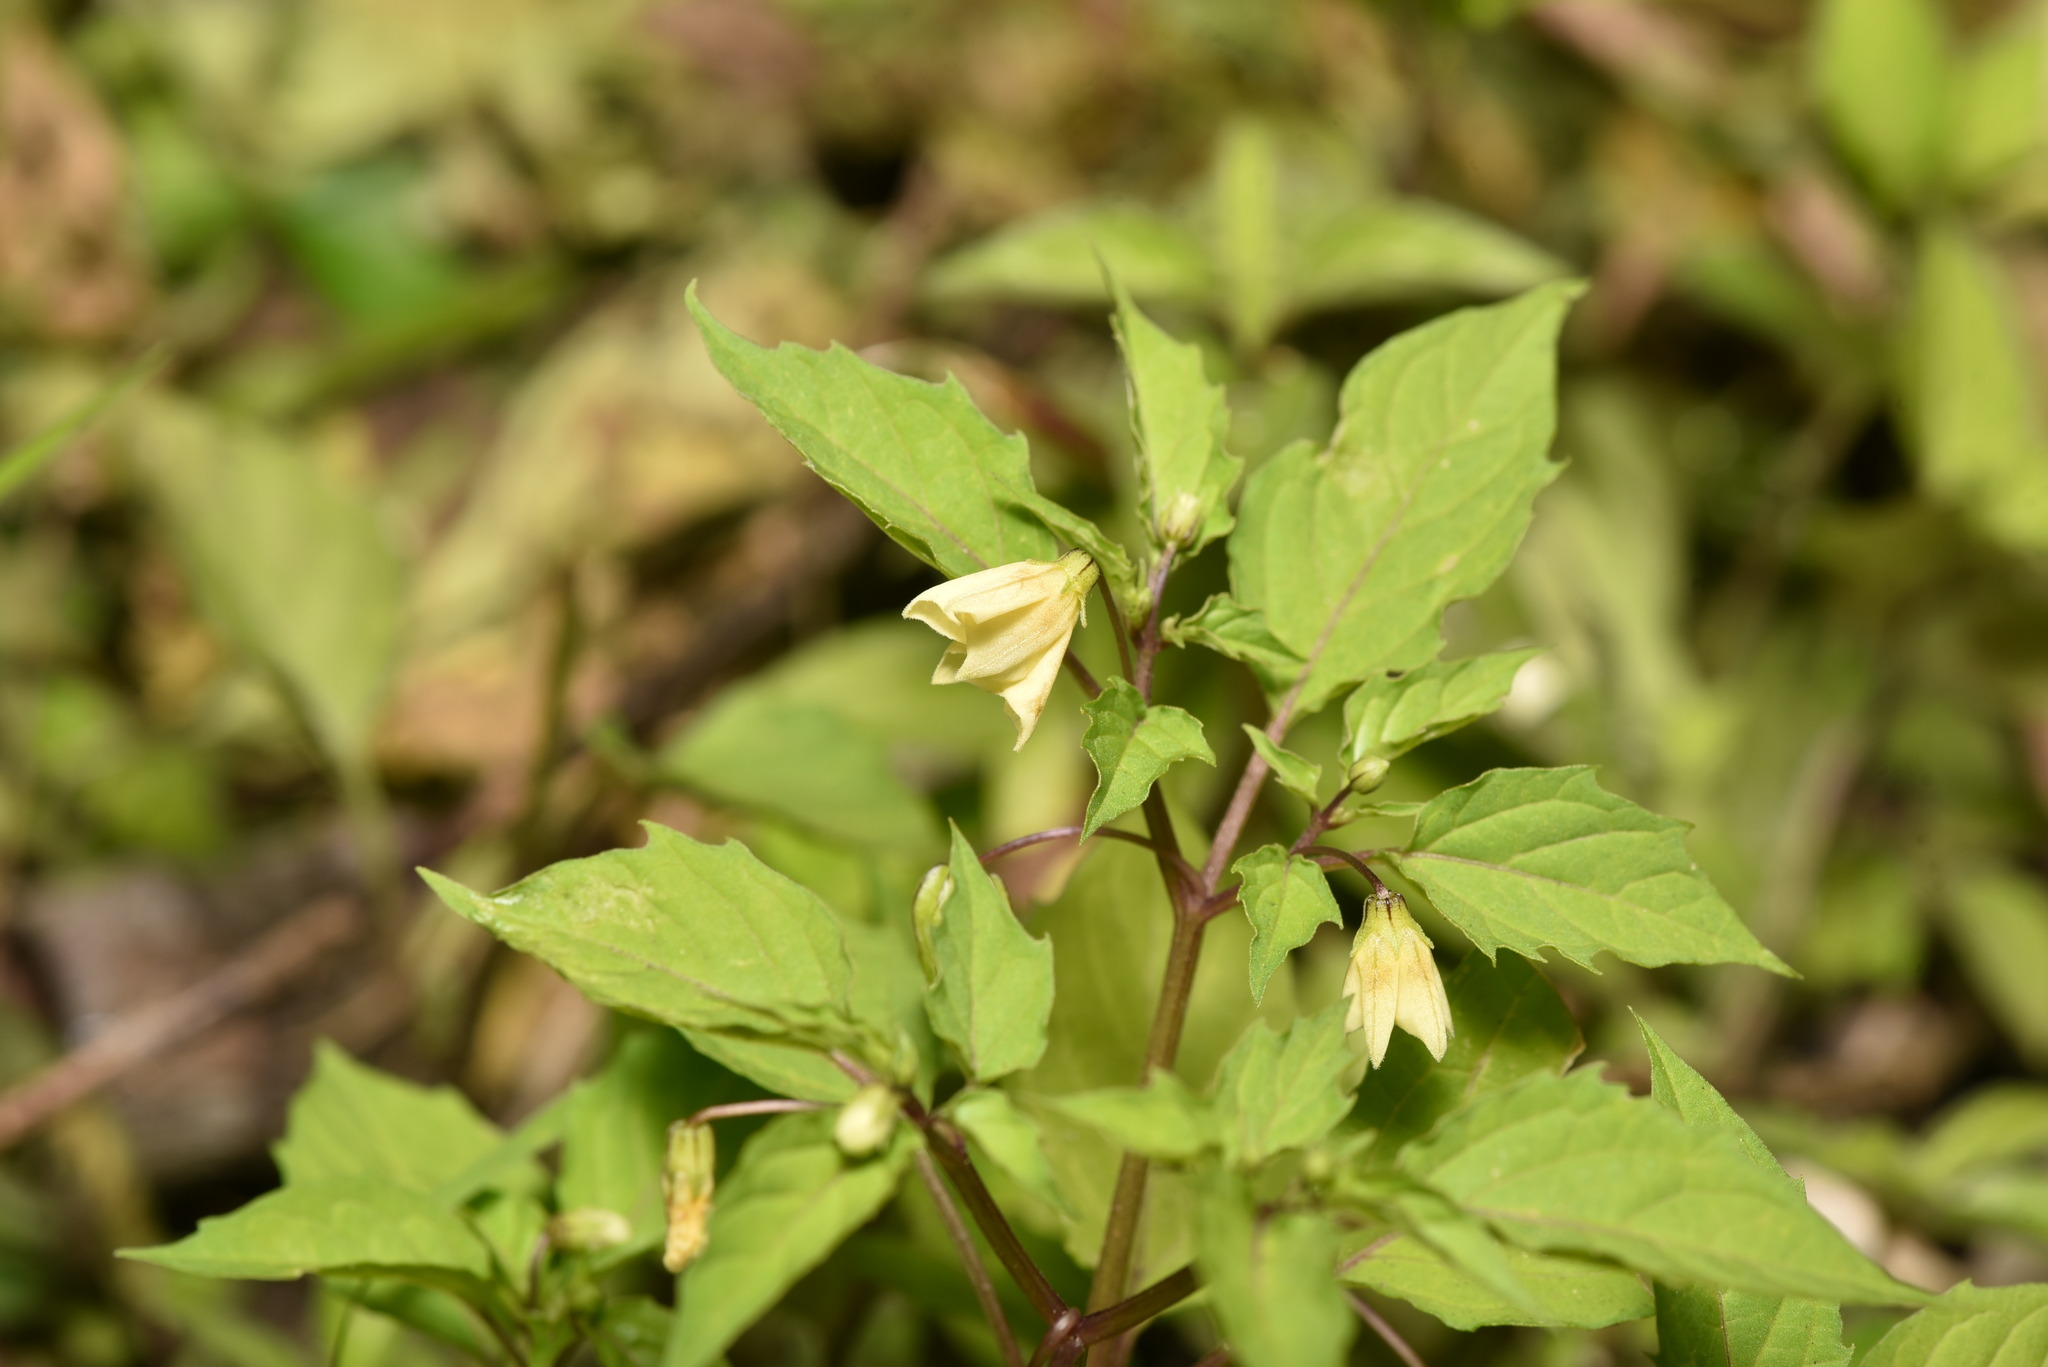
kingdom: Plantae
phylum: Tracheophyta
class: Magnoliopsida
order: Solanales
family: Solanaceae
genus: Physalis
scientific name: Physalis angulata
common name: Angular winter-cherry
